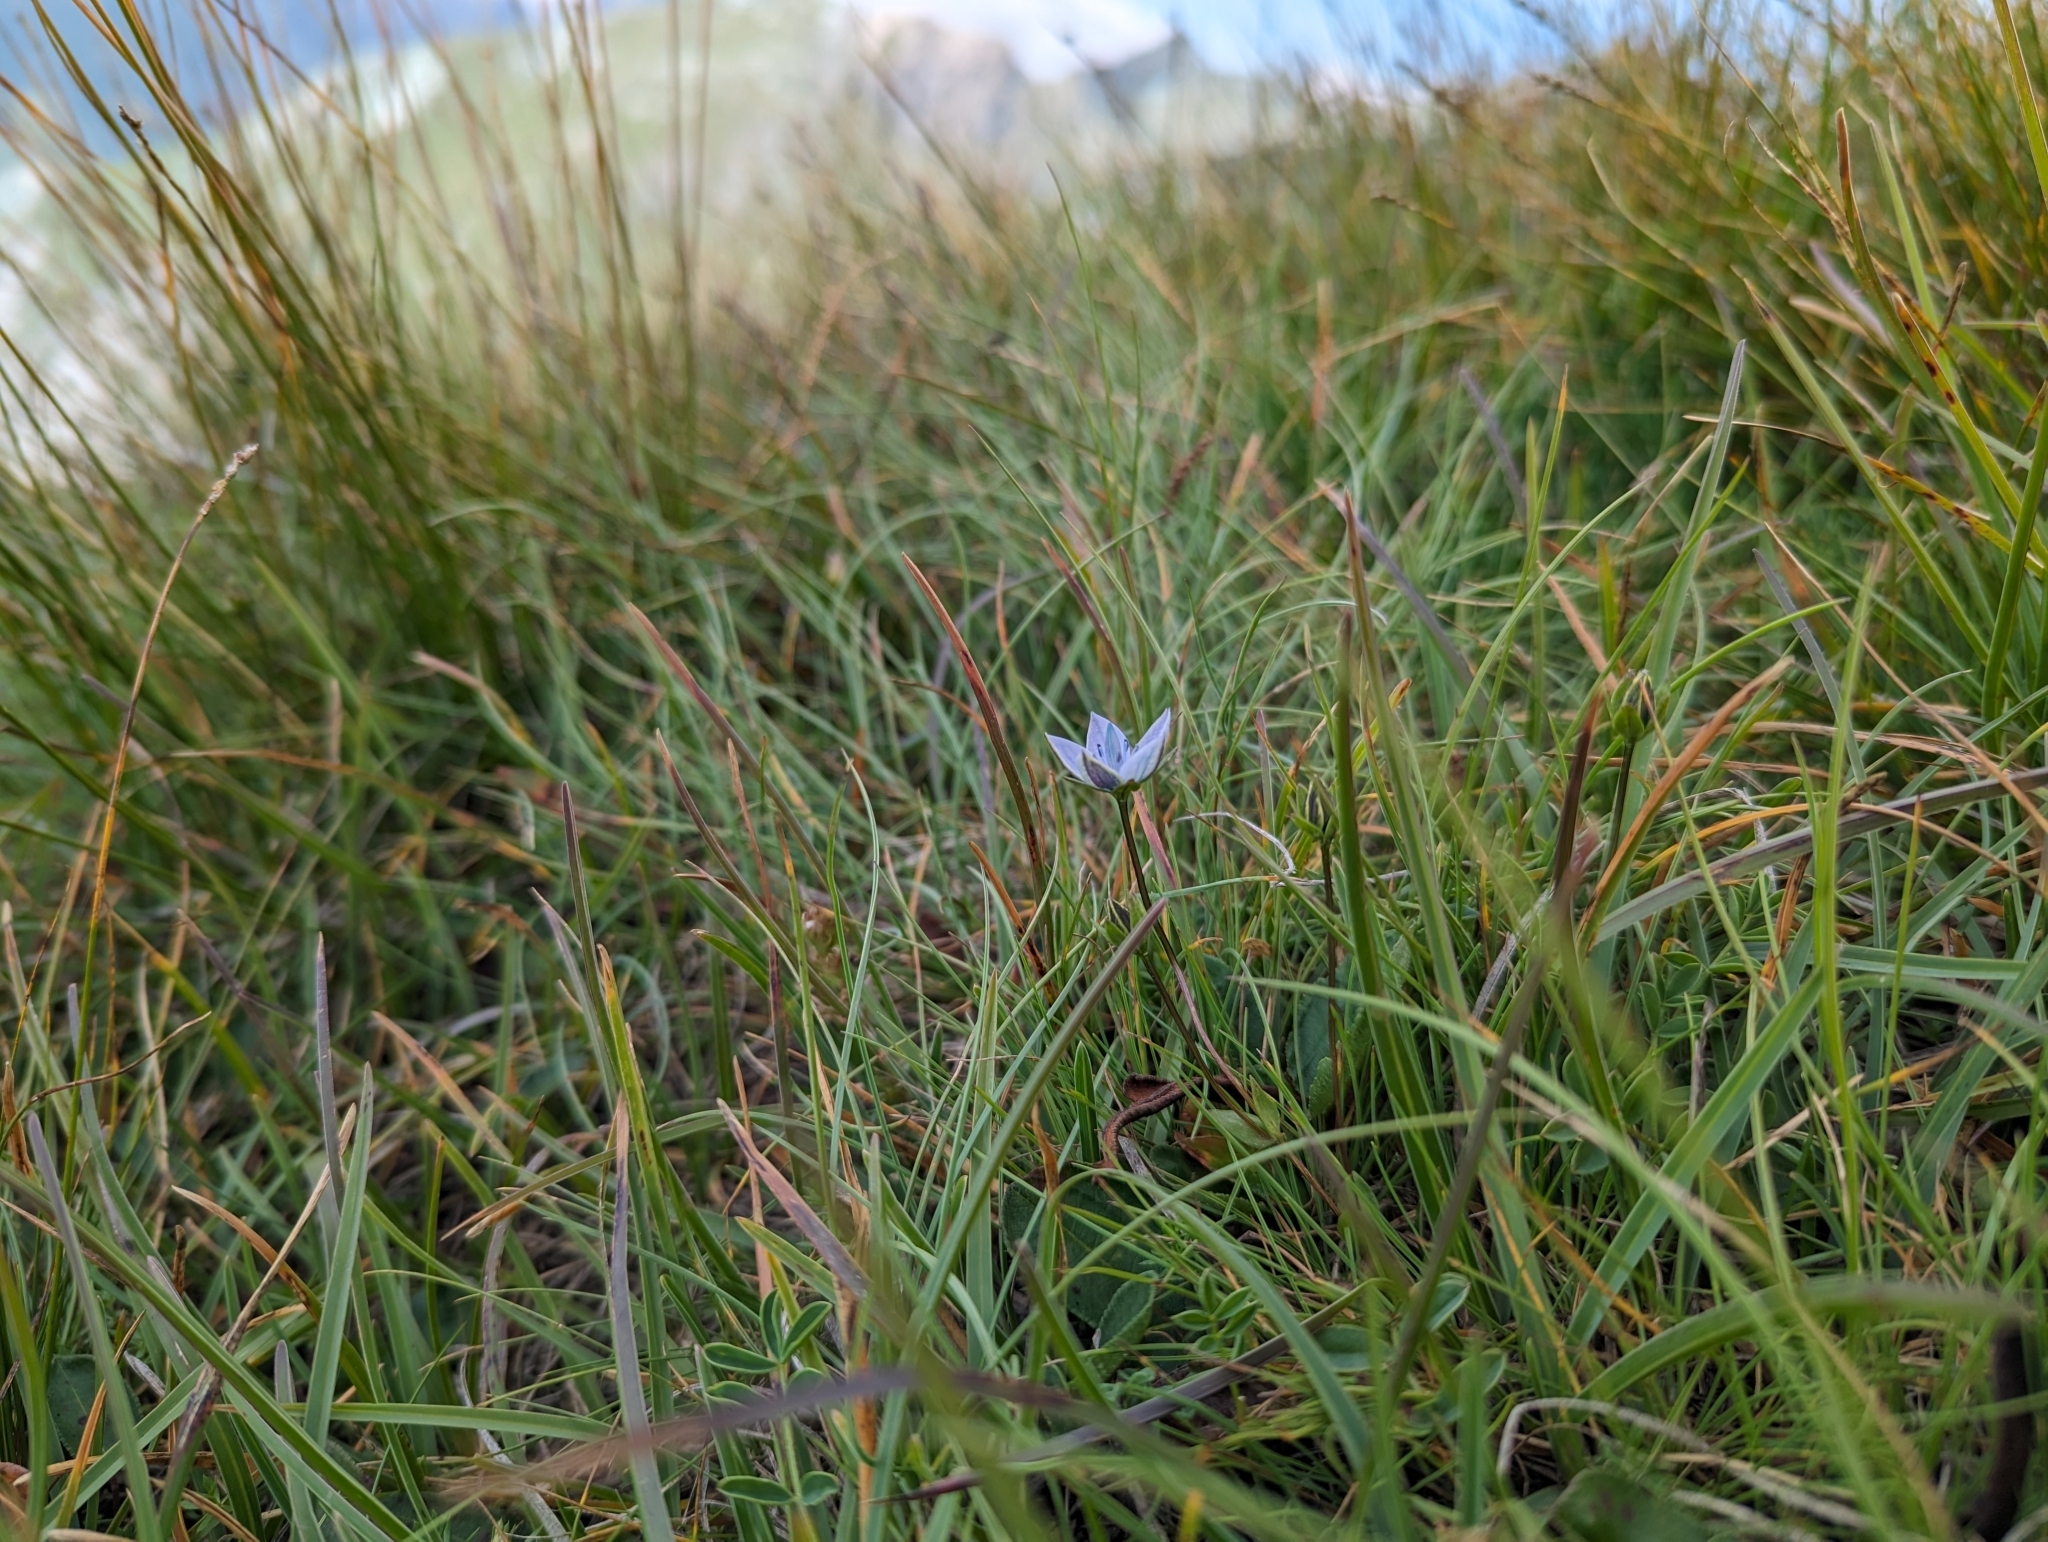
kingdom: Plantae
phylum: Tracheophyta
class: Magnoliopsida
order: Gentianales
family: Gentianaceae
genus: Lomatogonium
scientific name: Lomatogonium carinthiacum
